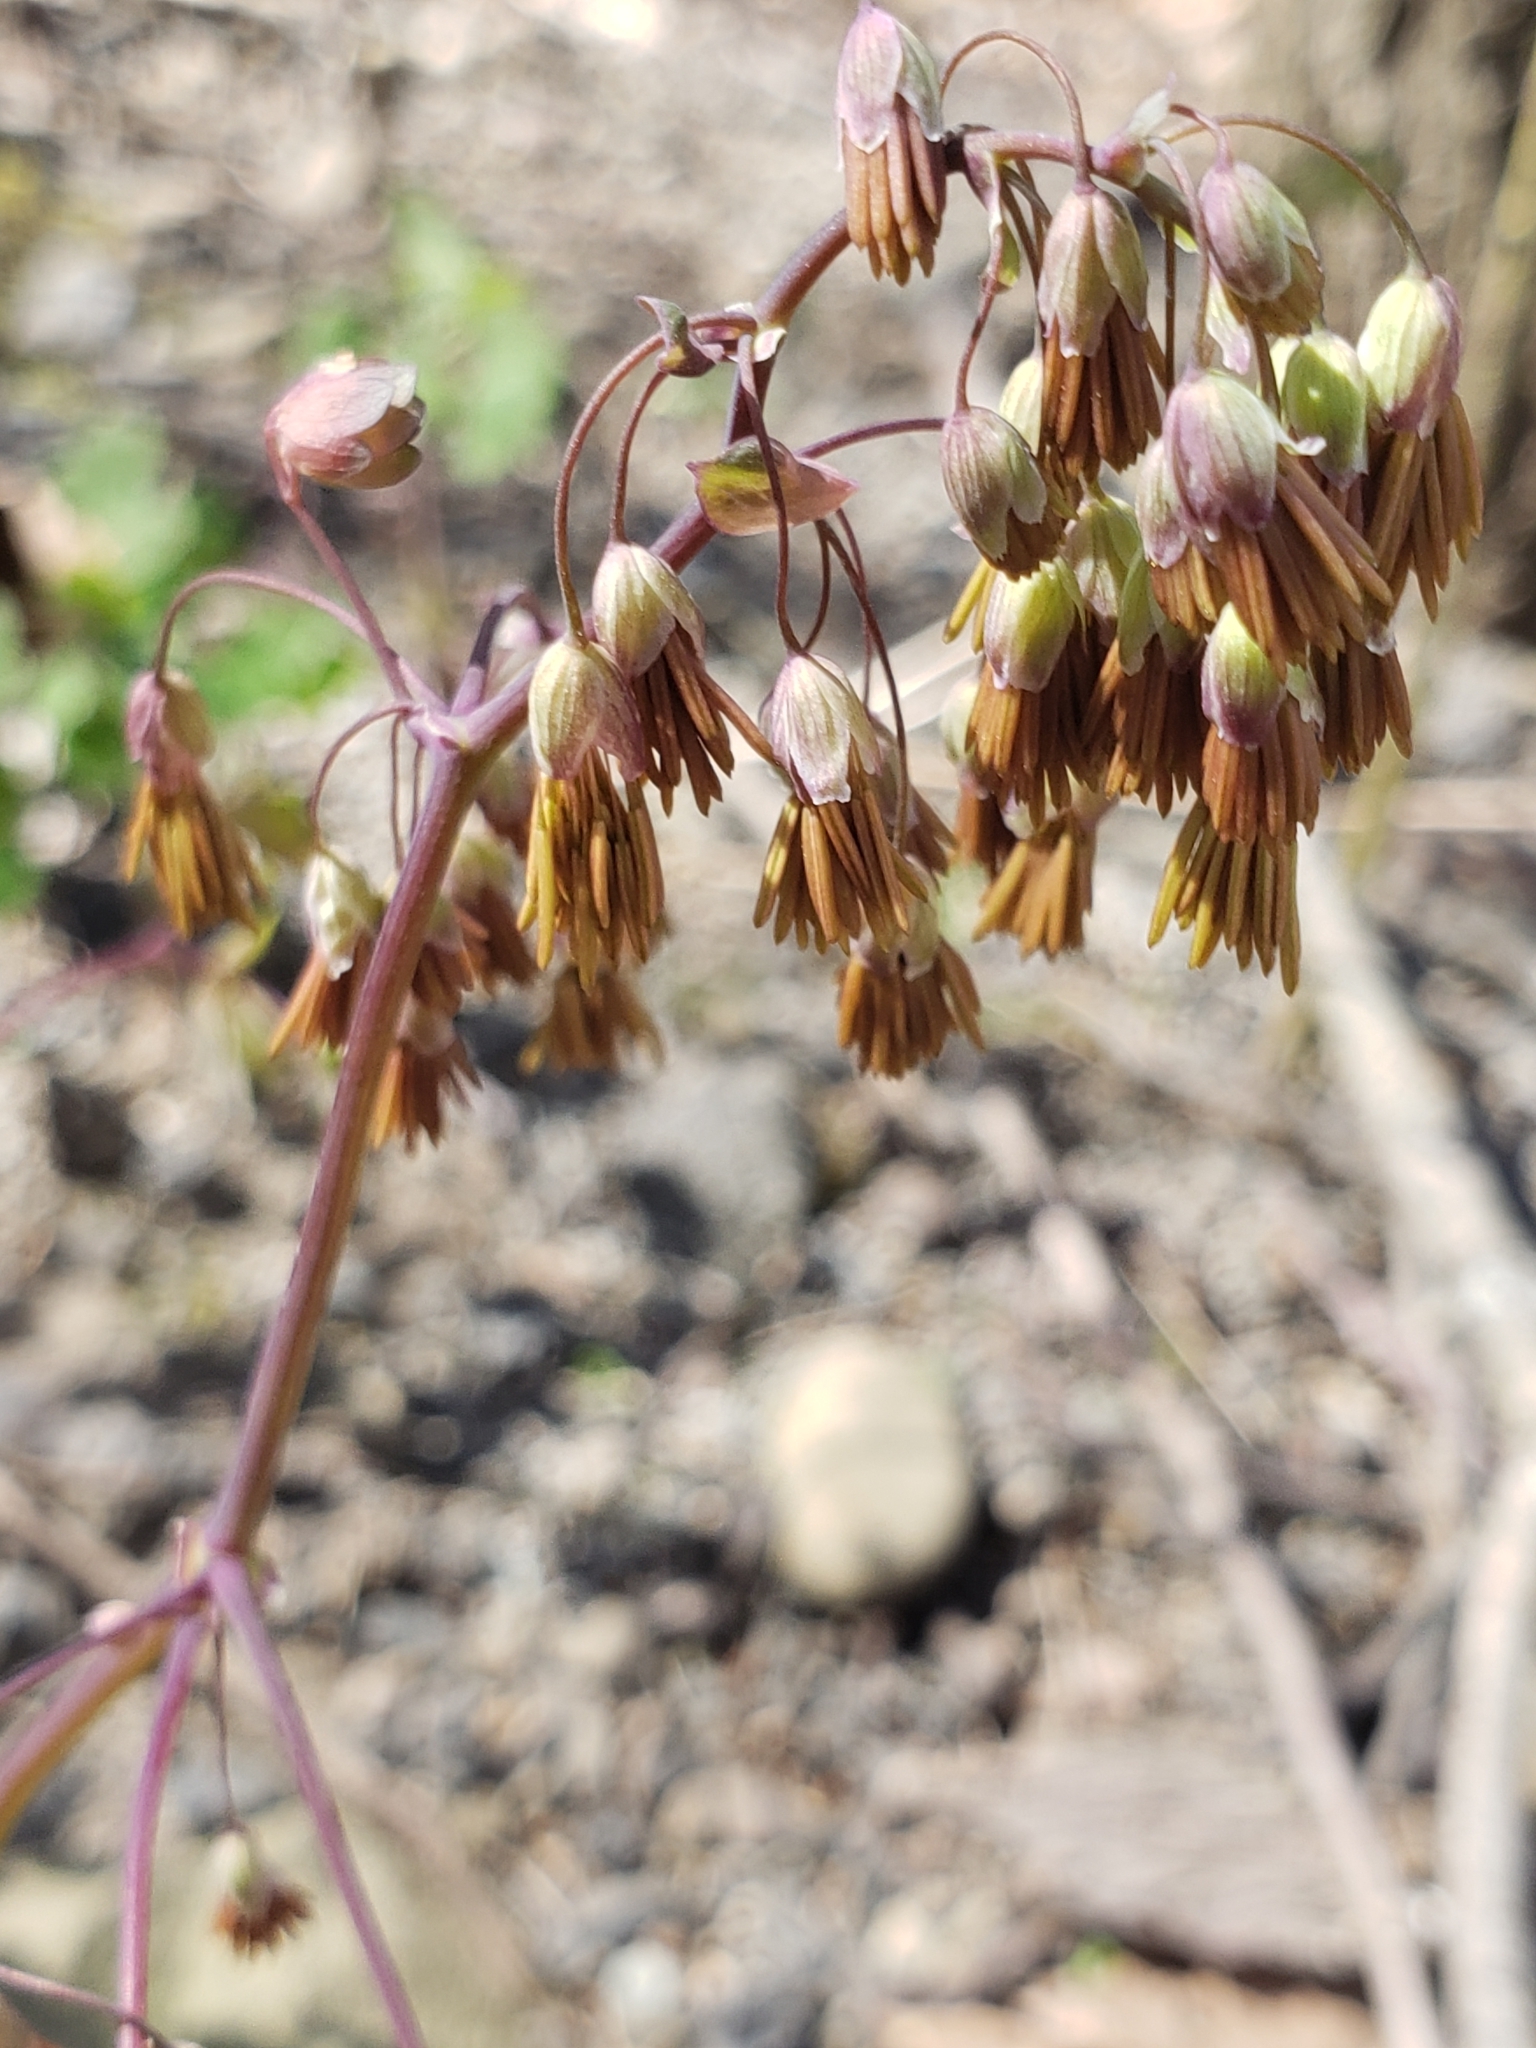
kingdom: Plantae
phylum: Tracheophyta
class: Magnoliopsida
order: Ranunculales
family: Ranunculaceae
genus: Thalictrum
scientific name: Thalictrum dioicum
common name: Early meadow-rue
